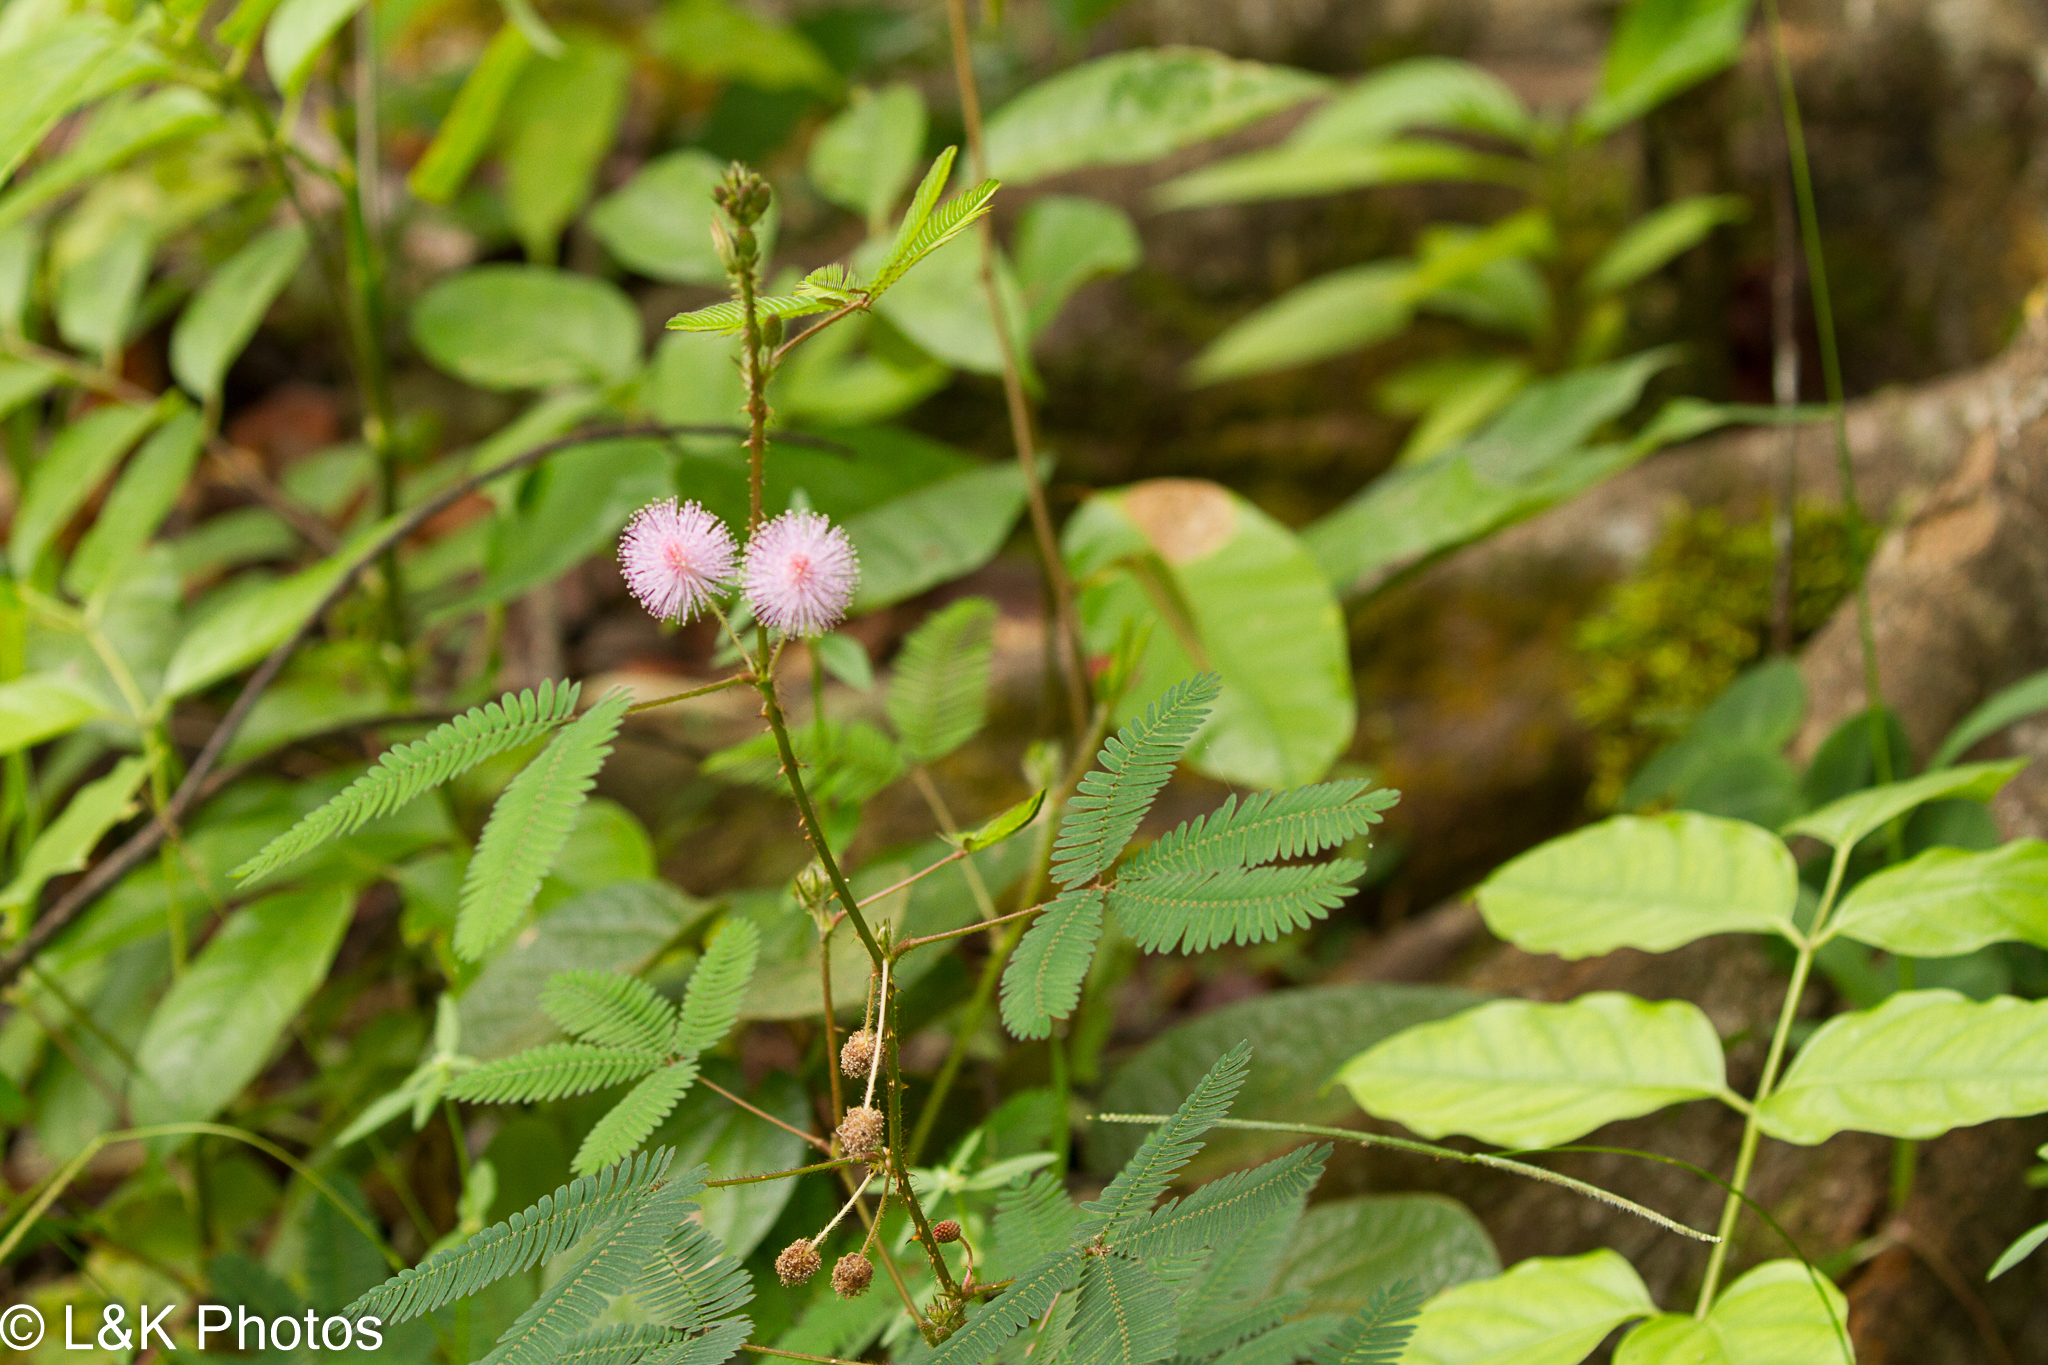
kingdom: Plantae
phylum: Tracheophyta
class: Magnoliopsida
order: Fabales
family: Fabaceae
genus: Mimosa
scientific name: Mimosa pudica
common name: Sensitive plant
